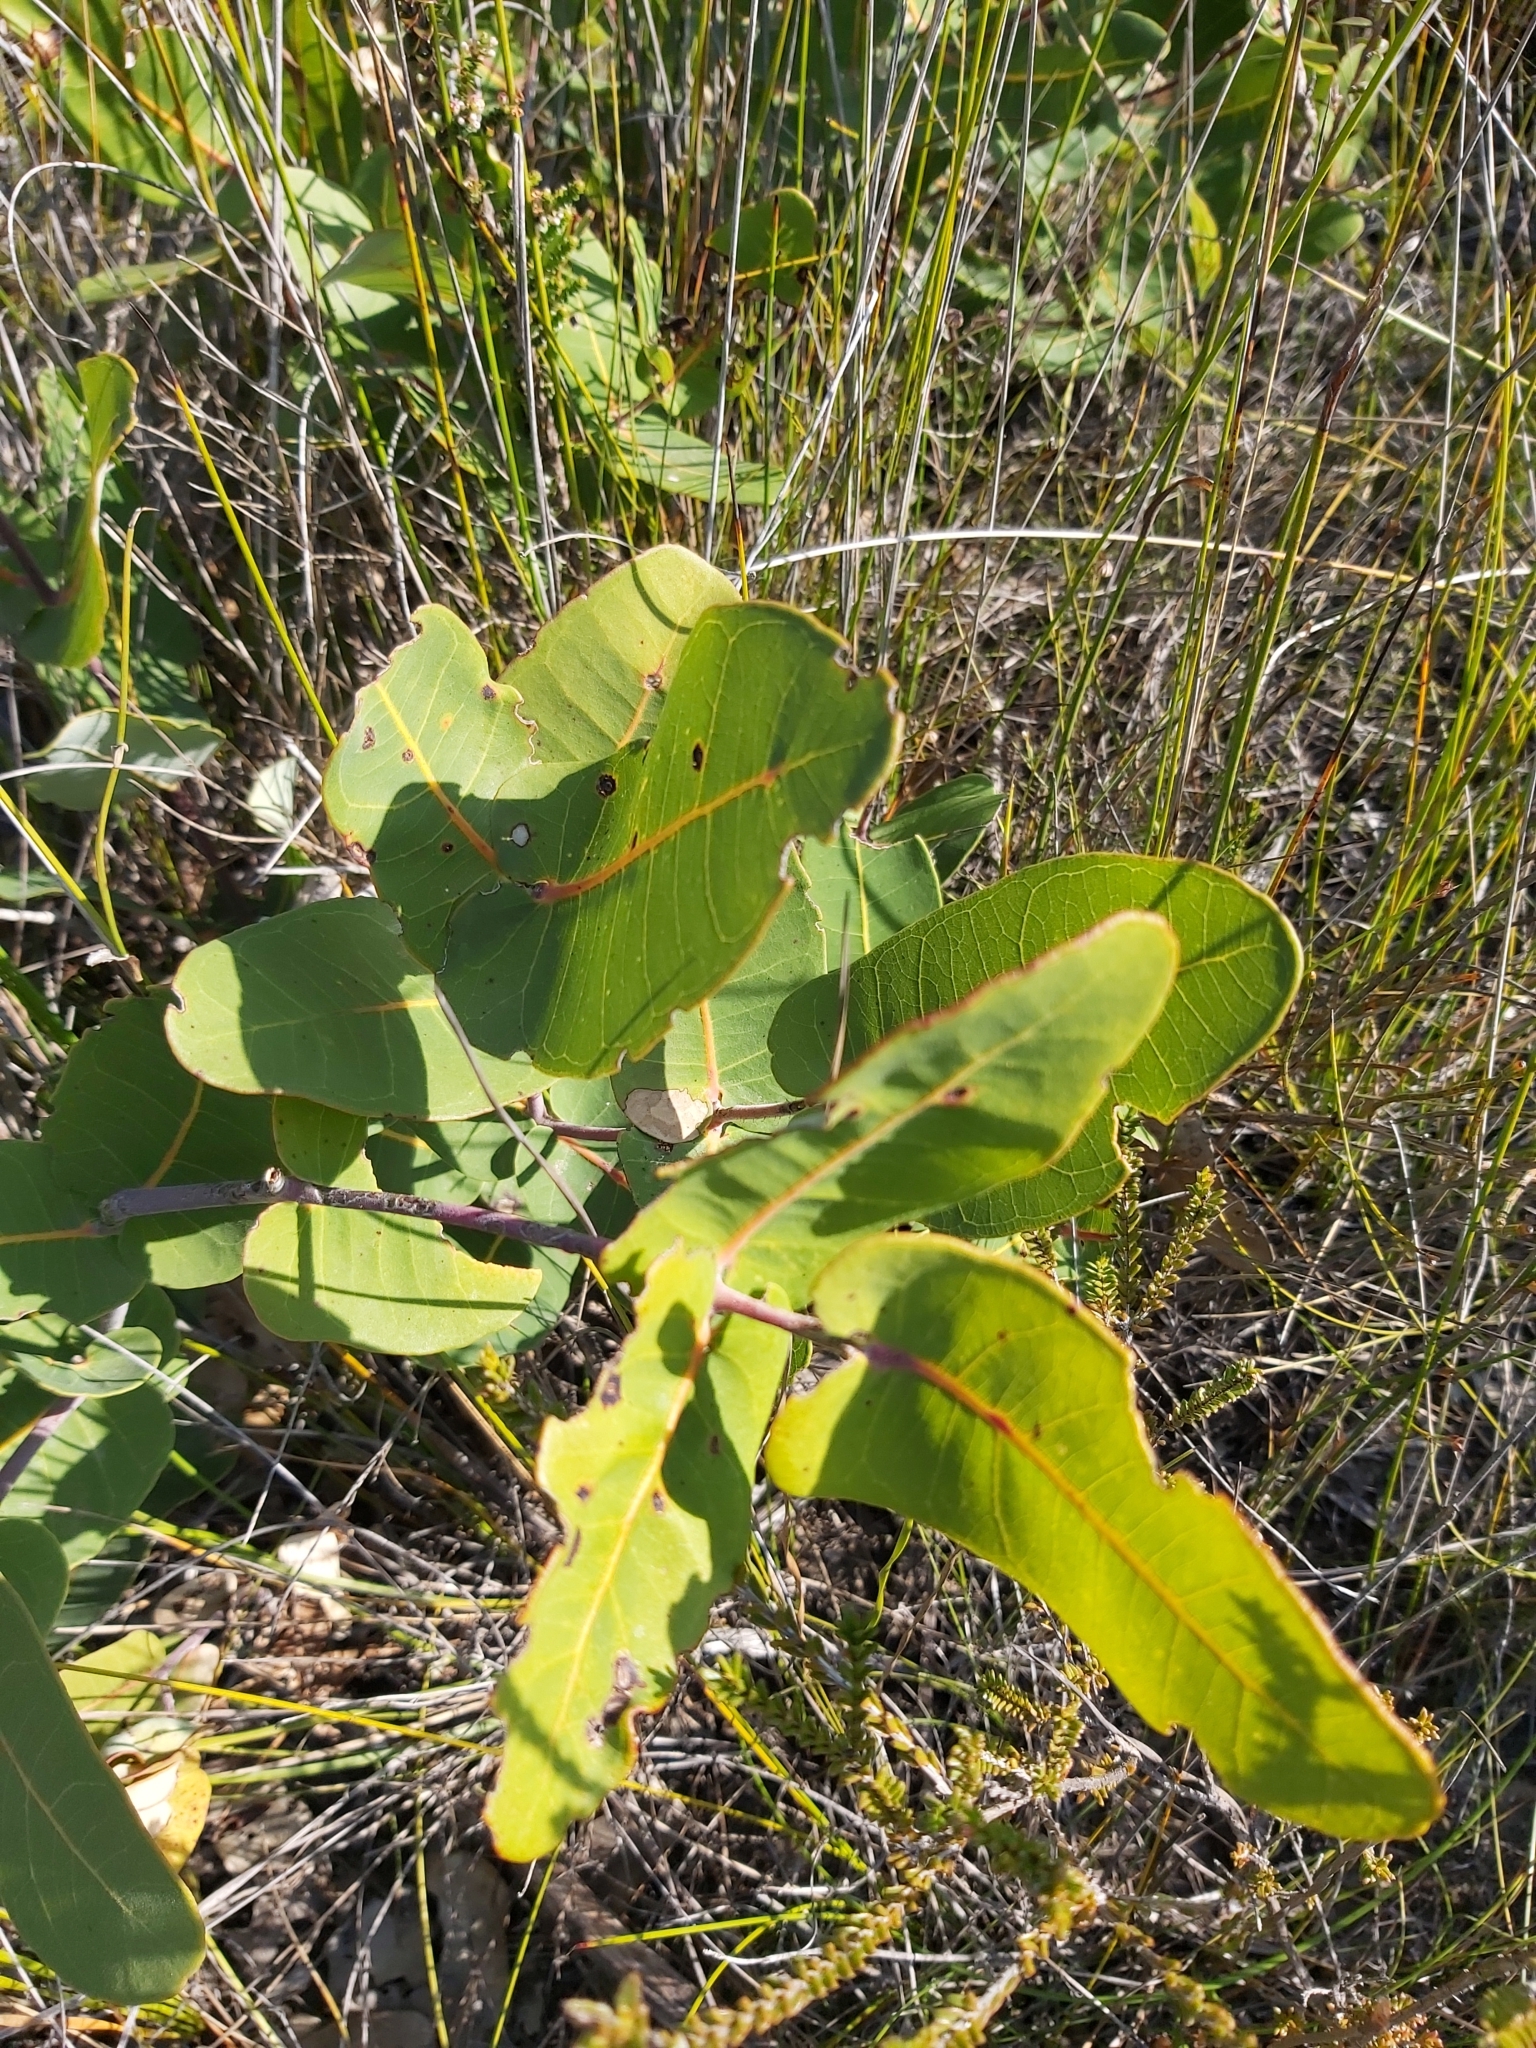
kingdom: Plantae
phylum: Tracheophyta
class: Magnoliopsida
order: Myrtales
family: Myrtaceae
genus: Angophora
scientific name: Angophora hispida
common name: Dwarf-apple
